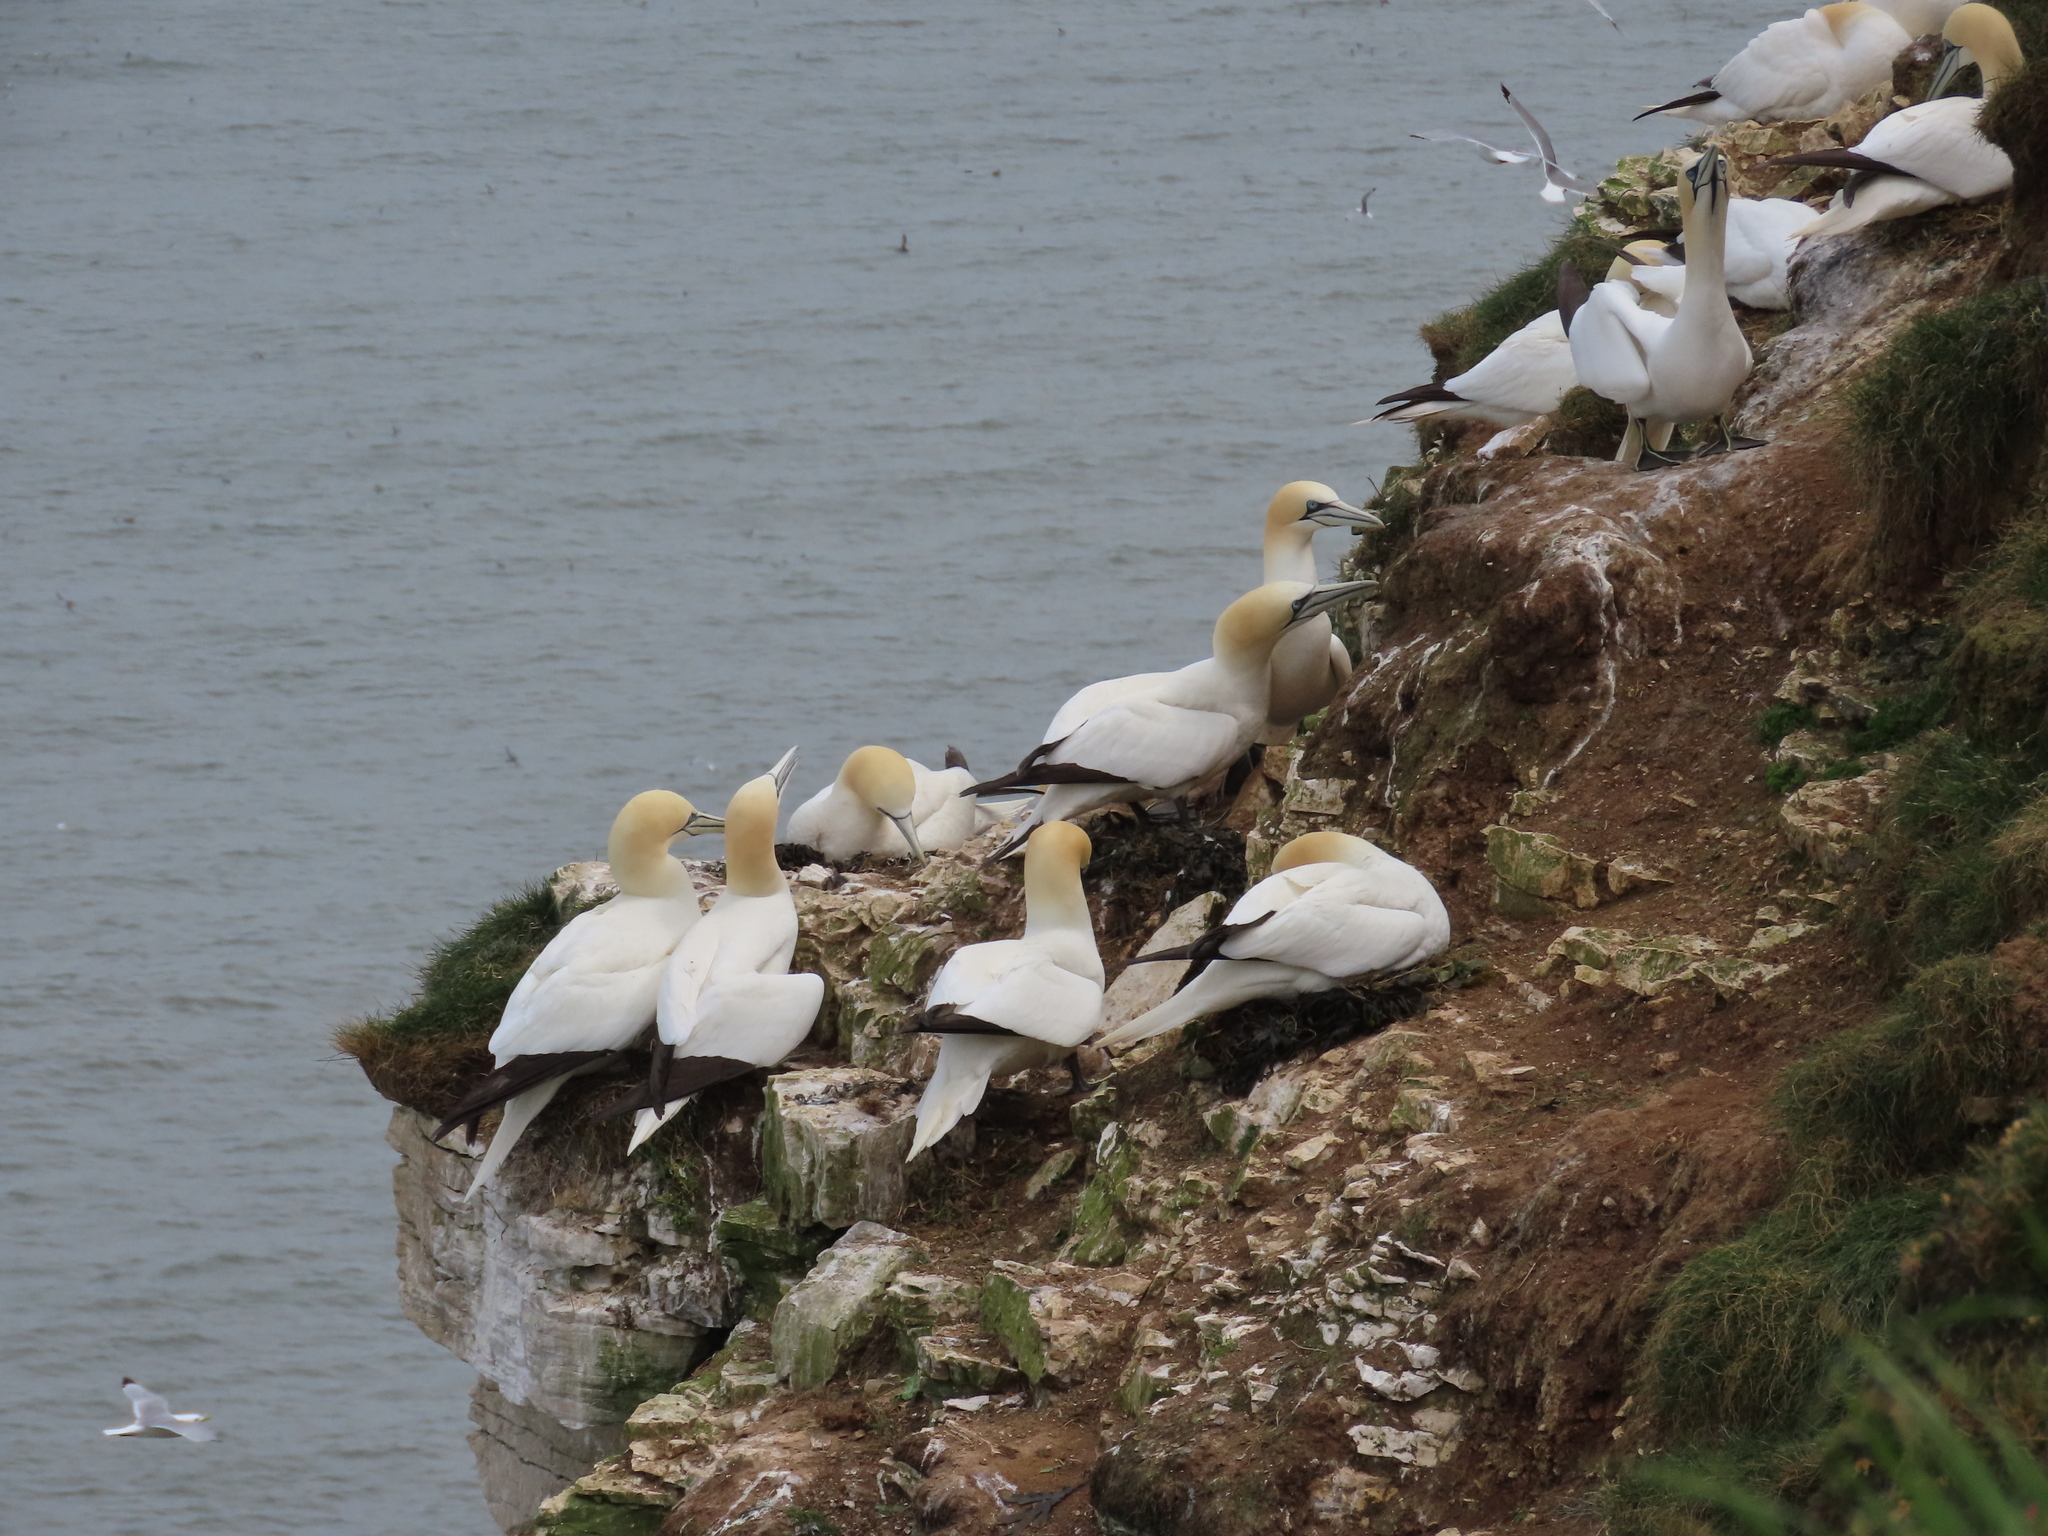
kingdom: Animalia
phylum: Chordata
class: Aves
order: Suliformes
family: Sulidae
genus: Morus
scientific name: Morus bassanus
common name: Northern gannet
